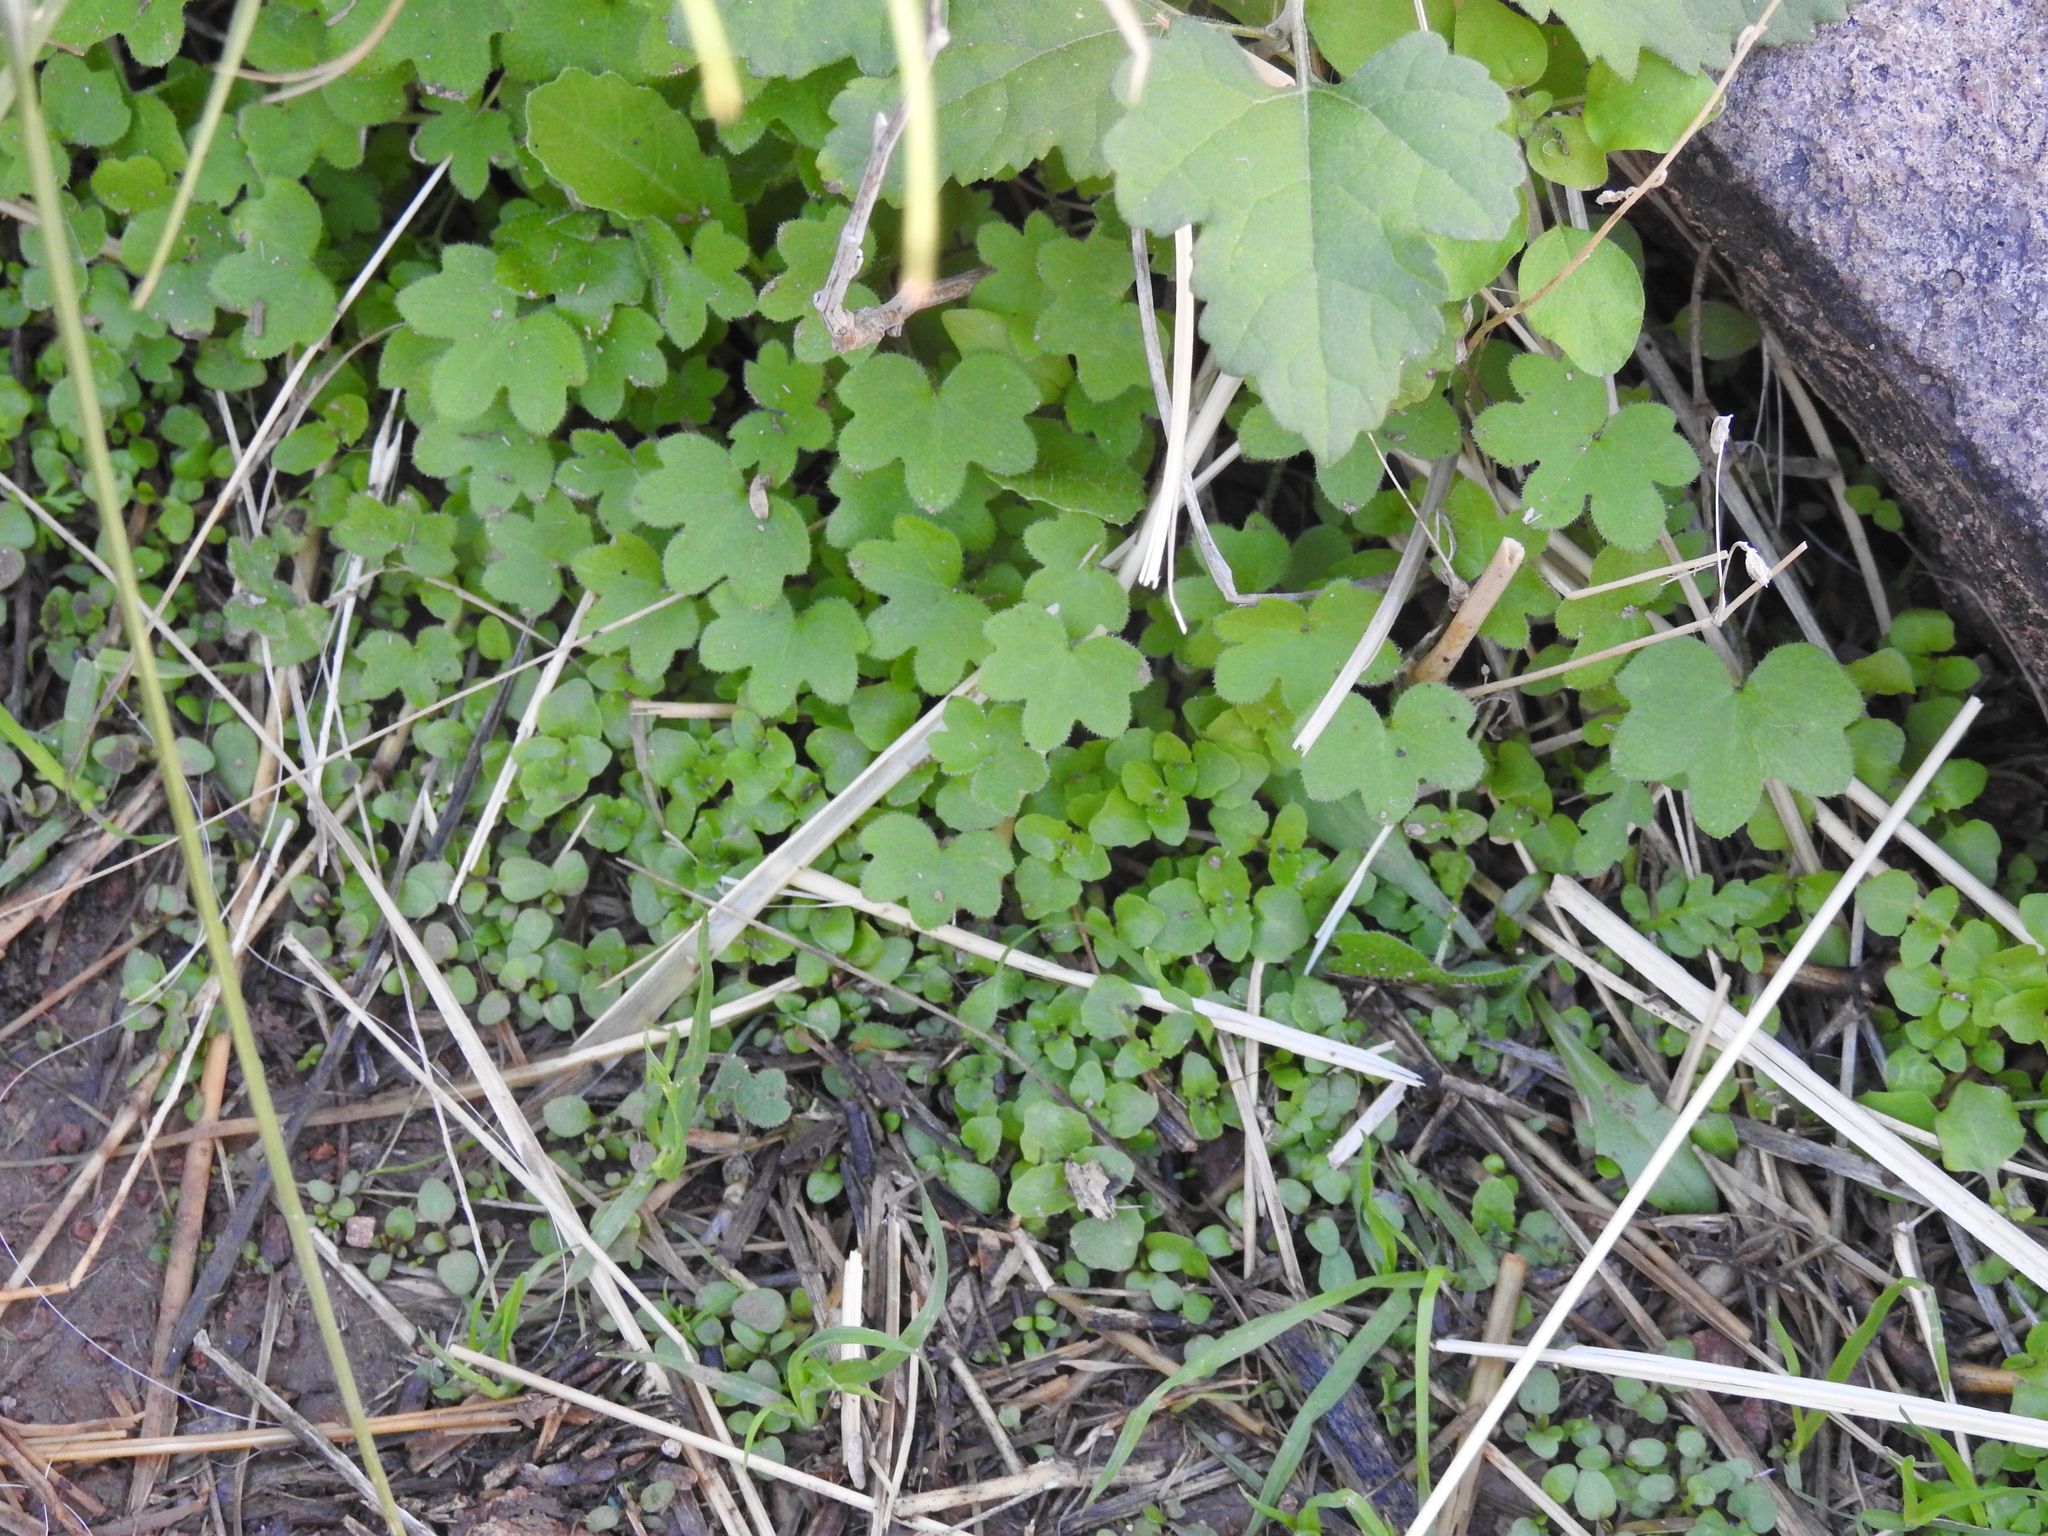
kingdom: Plantae
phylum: Tracheophyta
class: Magnoliopsida
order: Apiales
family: Apiaceae
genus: Bowlesia
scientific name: Bowlesia incana
